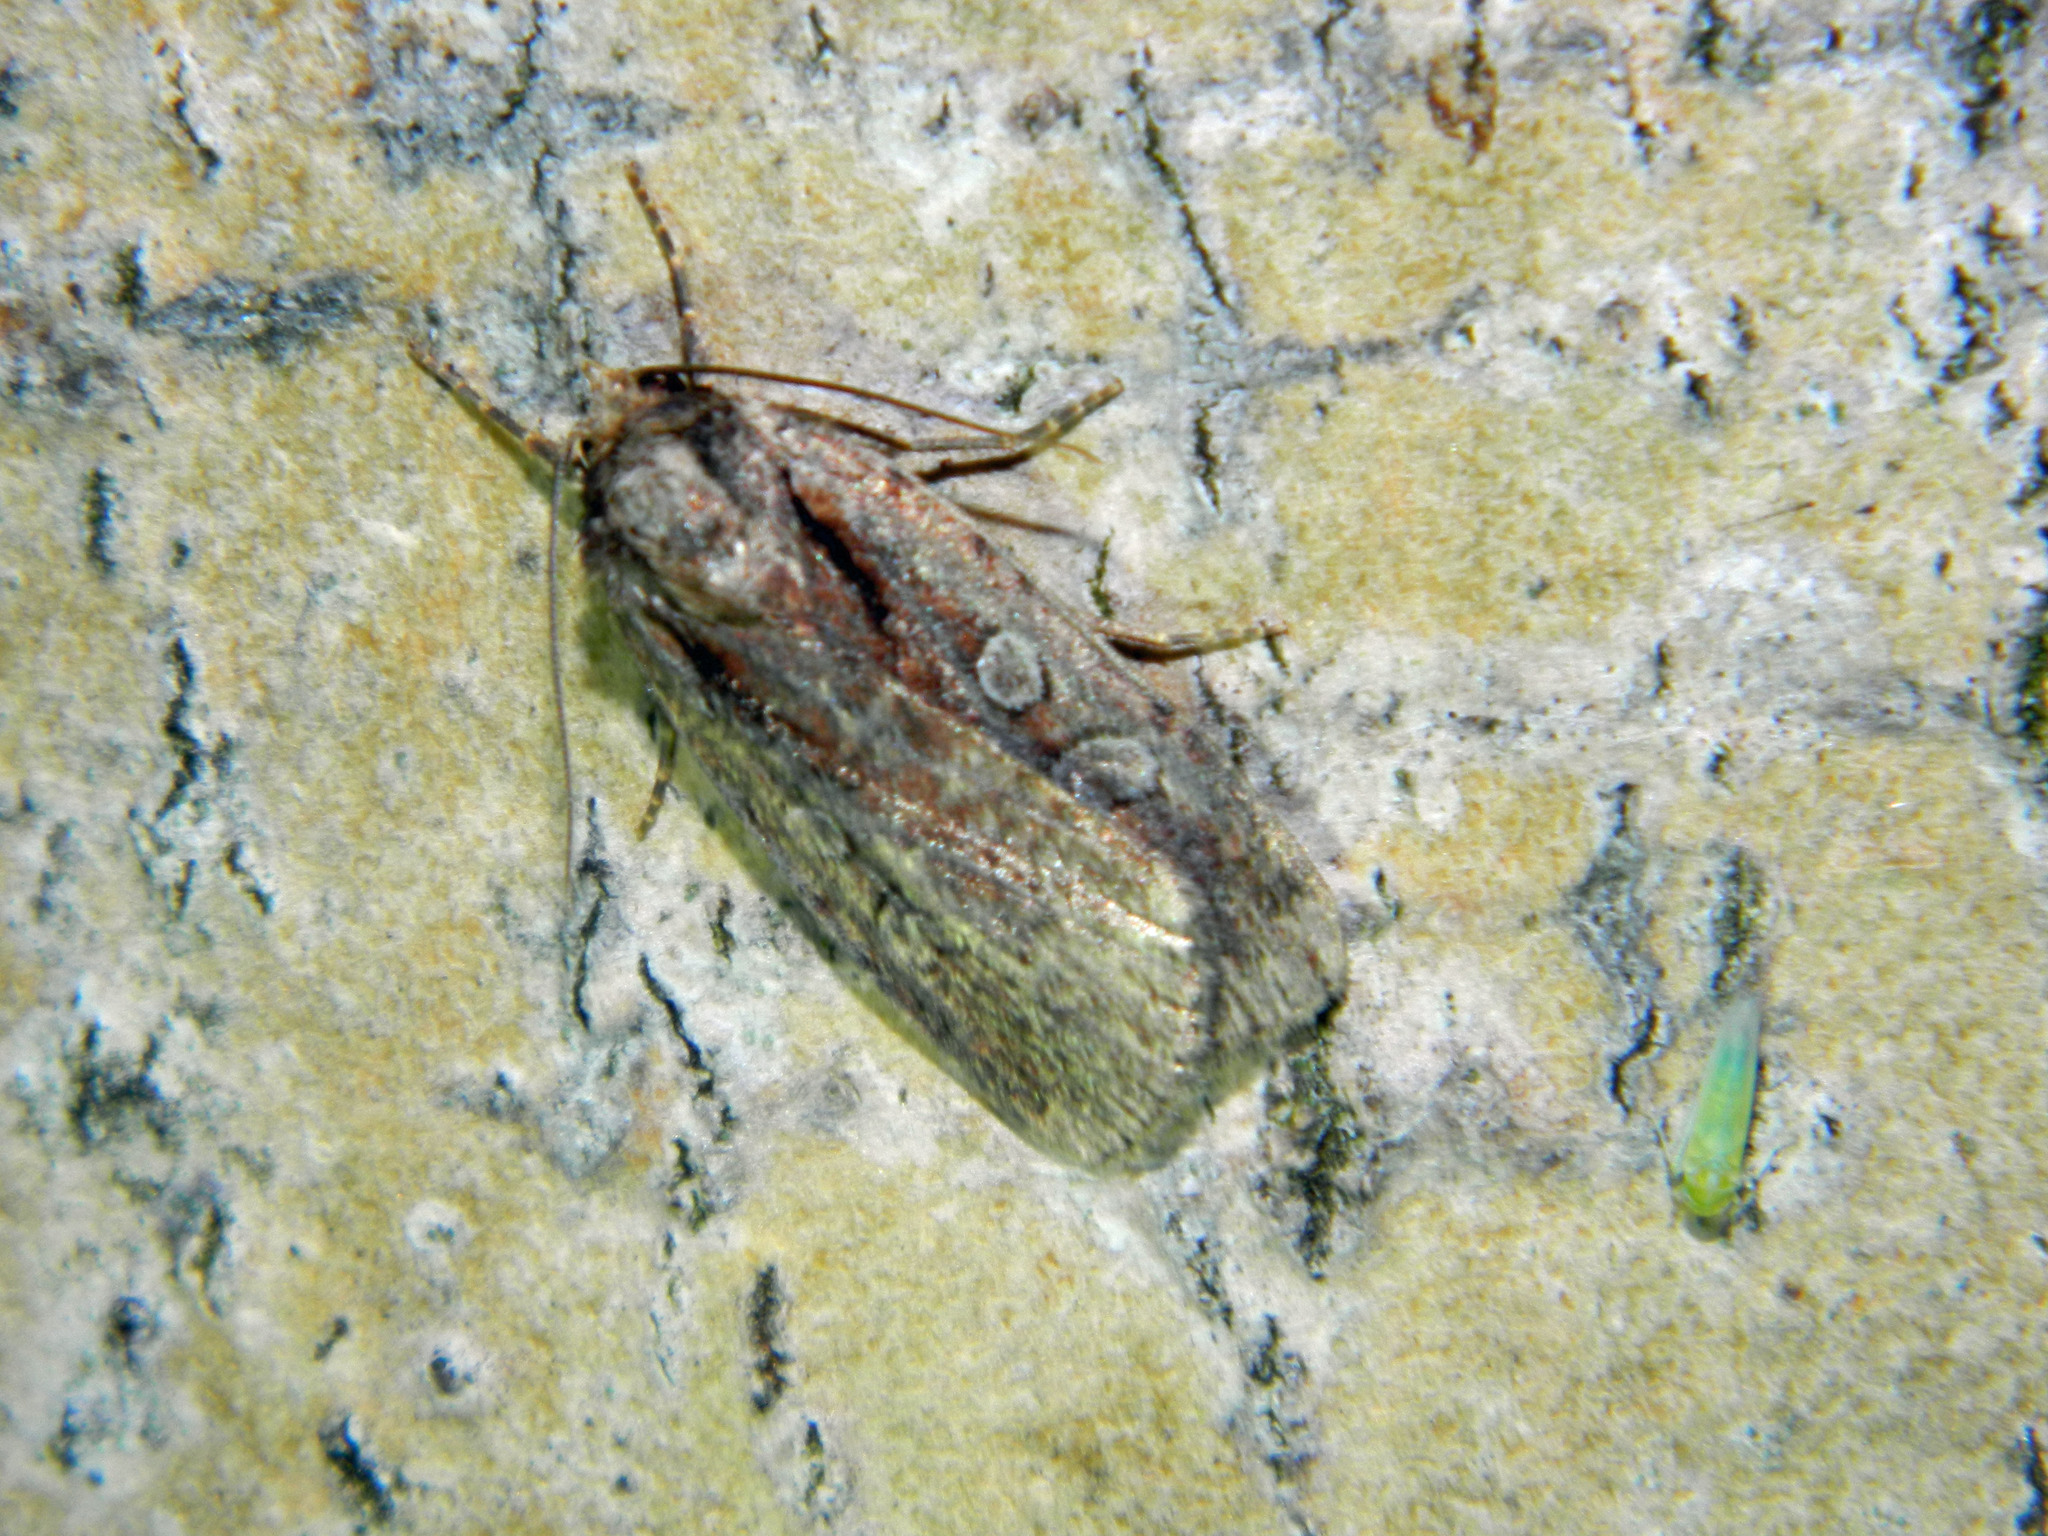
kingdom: Animalia
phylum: Arthropoda
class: Insecta
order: Lepidoptera
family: Noctuidae
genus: Eueretagrotis
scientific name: Eueretagrotis attentus
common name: Attentive dart
